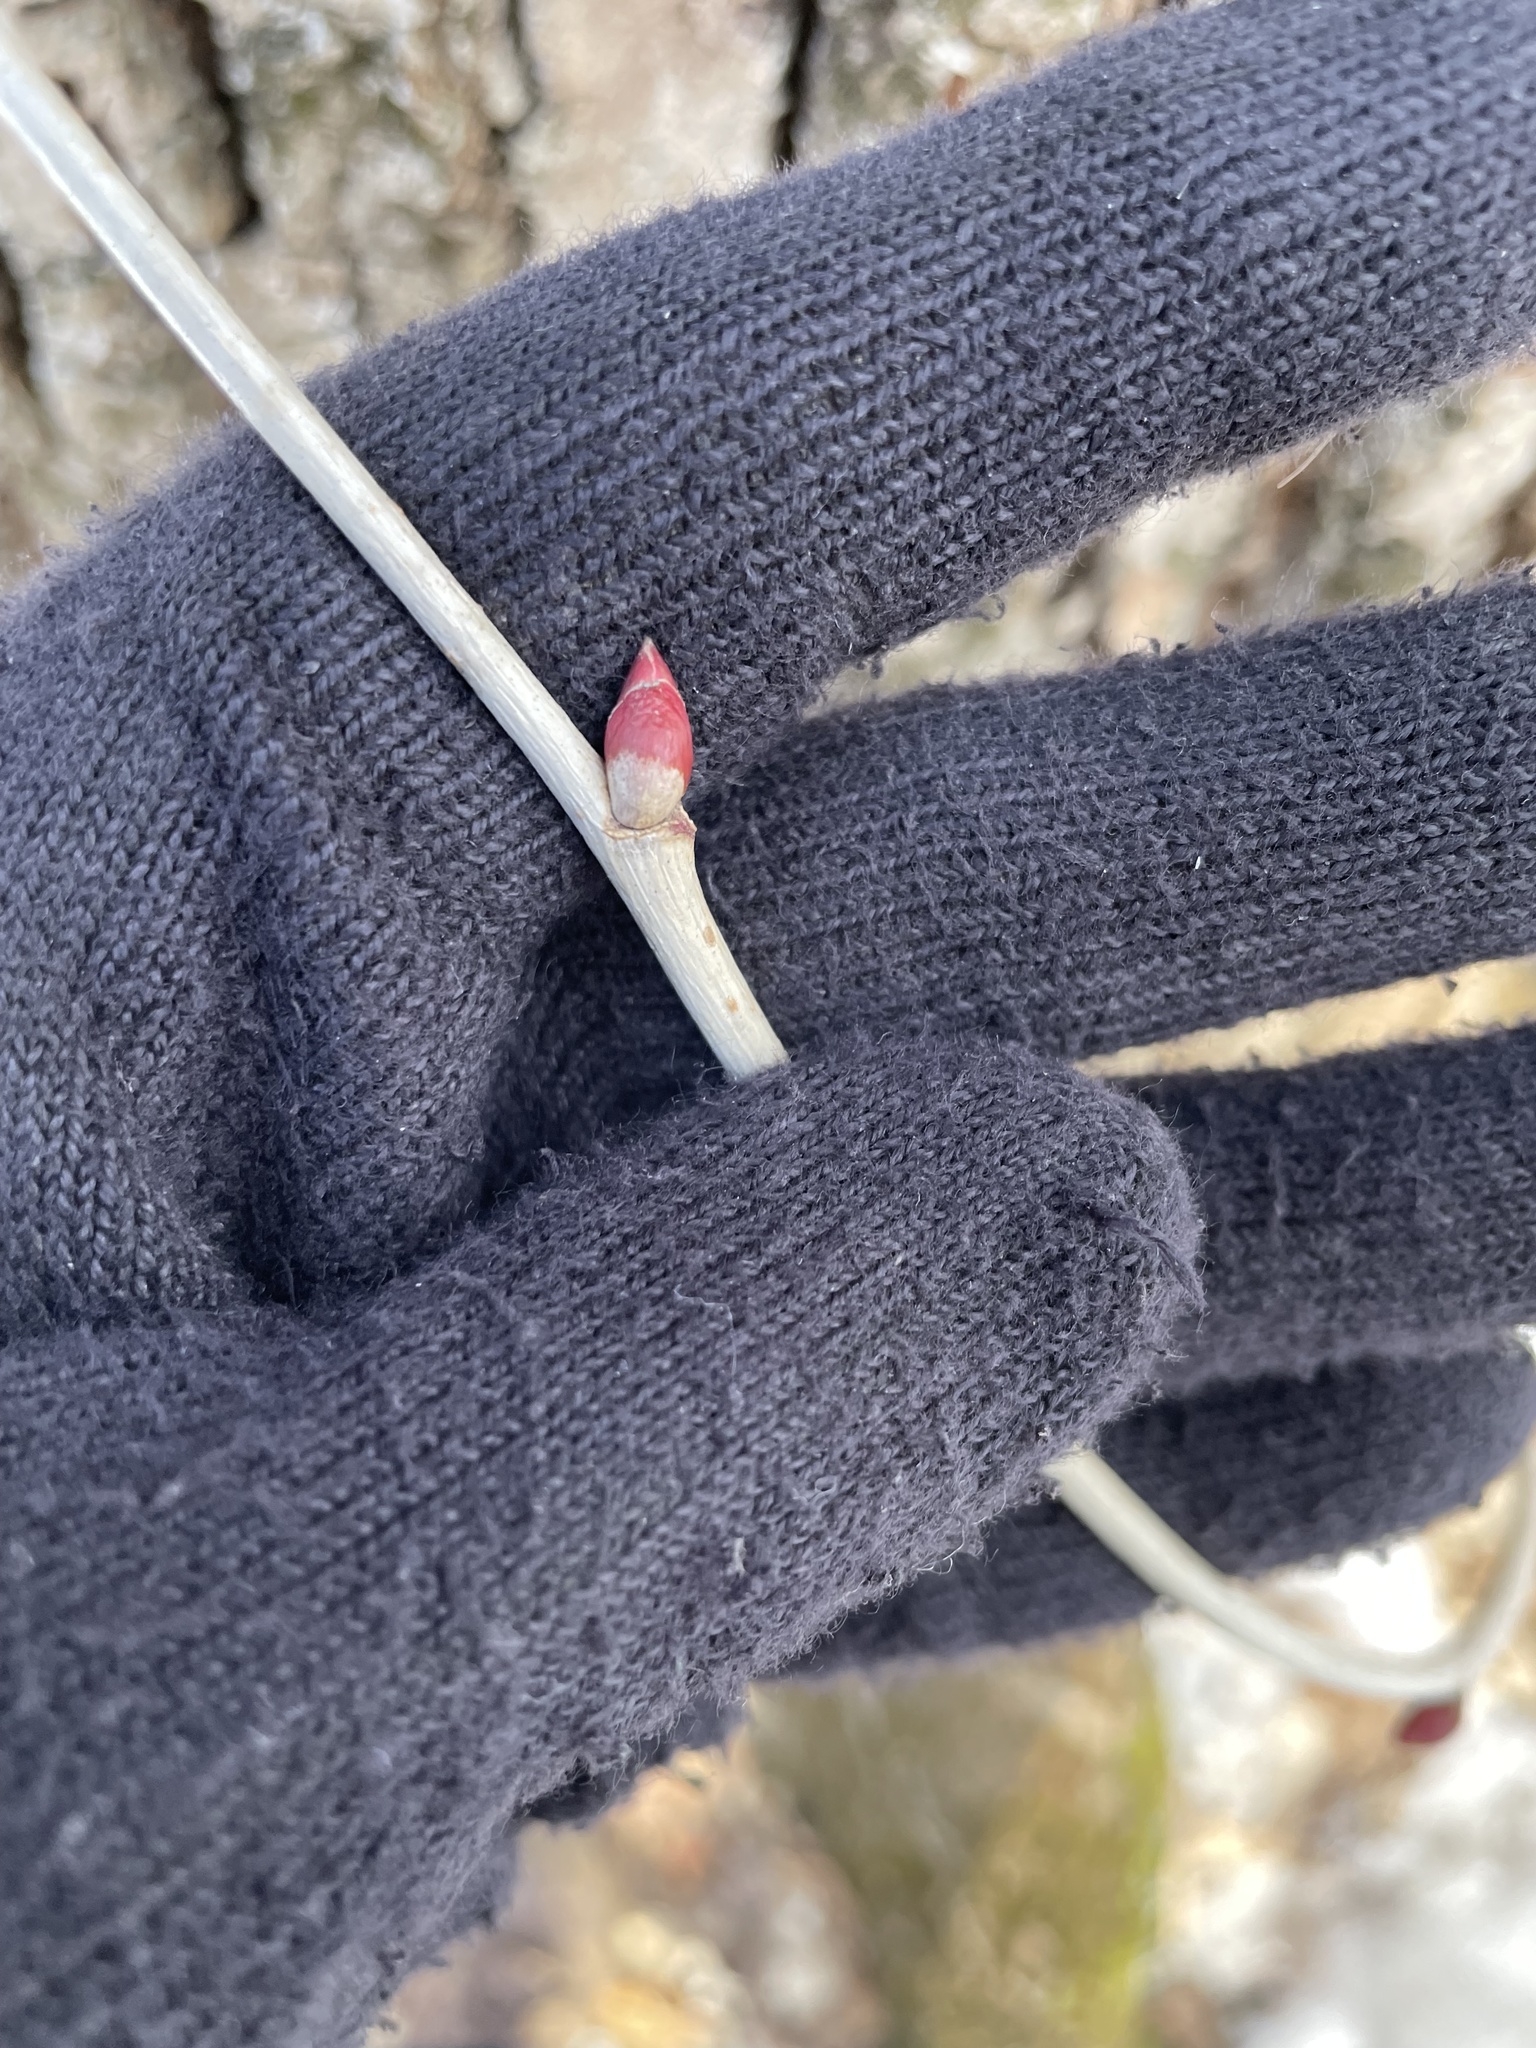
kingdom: Plantae
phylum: Tracheophyta
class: Magnoliopsida
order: Malvales
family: Malvaceae
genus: Tilia
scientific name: Tilia americana
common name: Basswood
